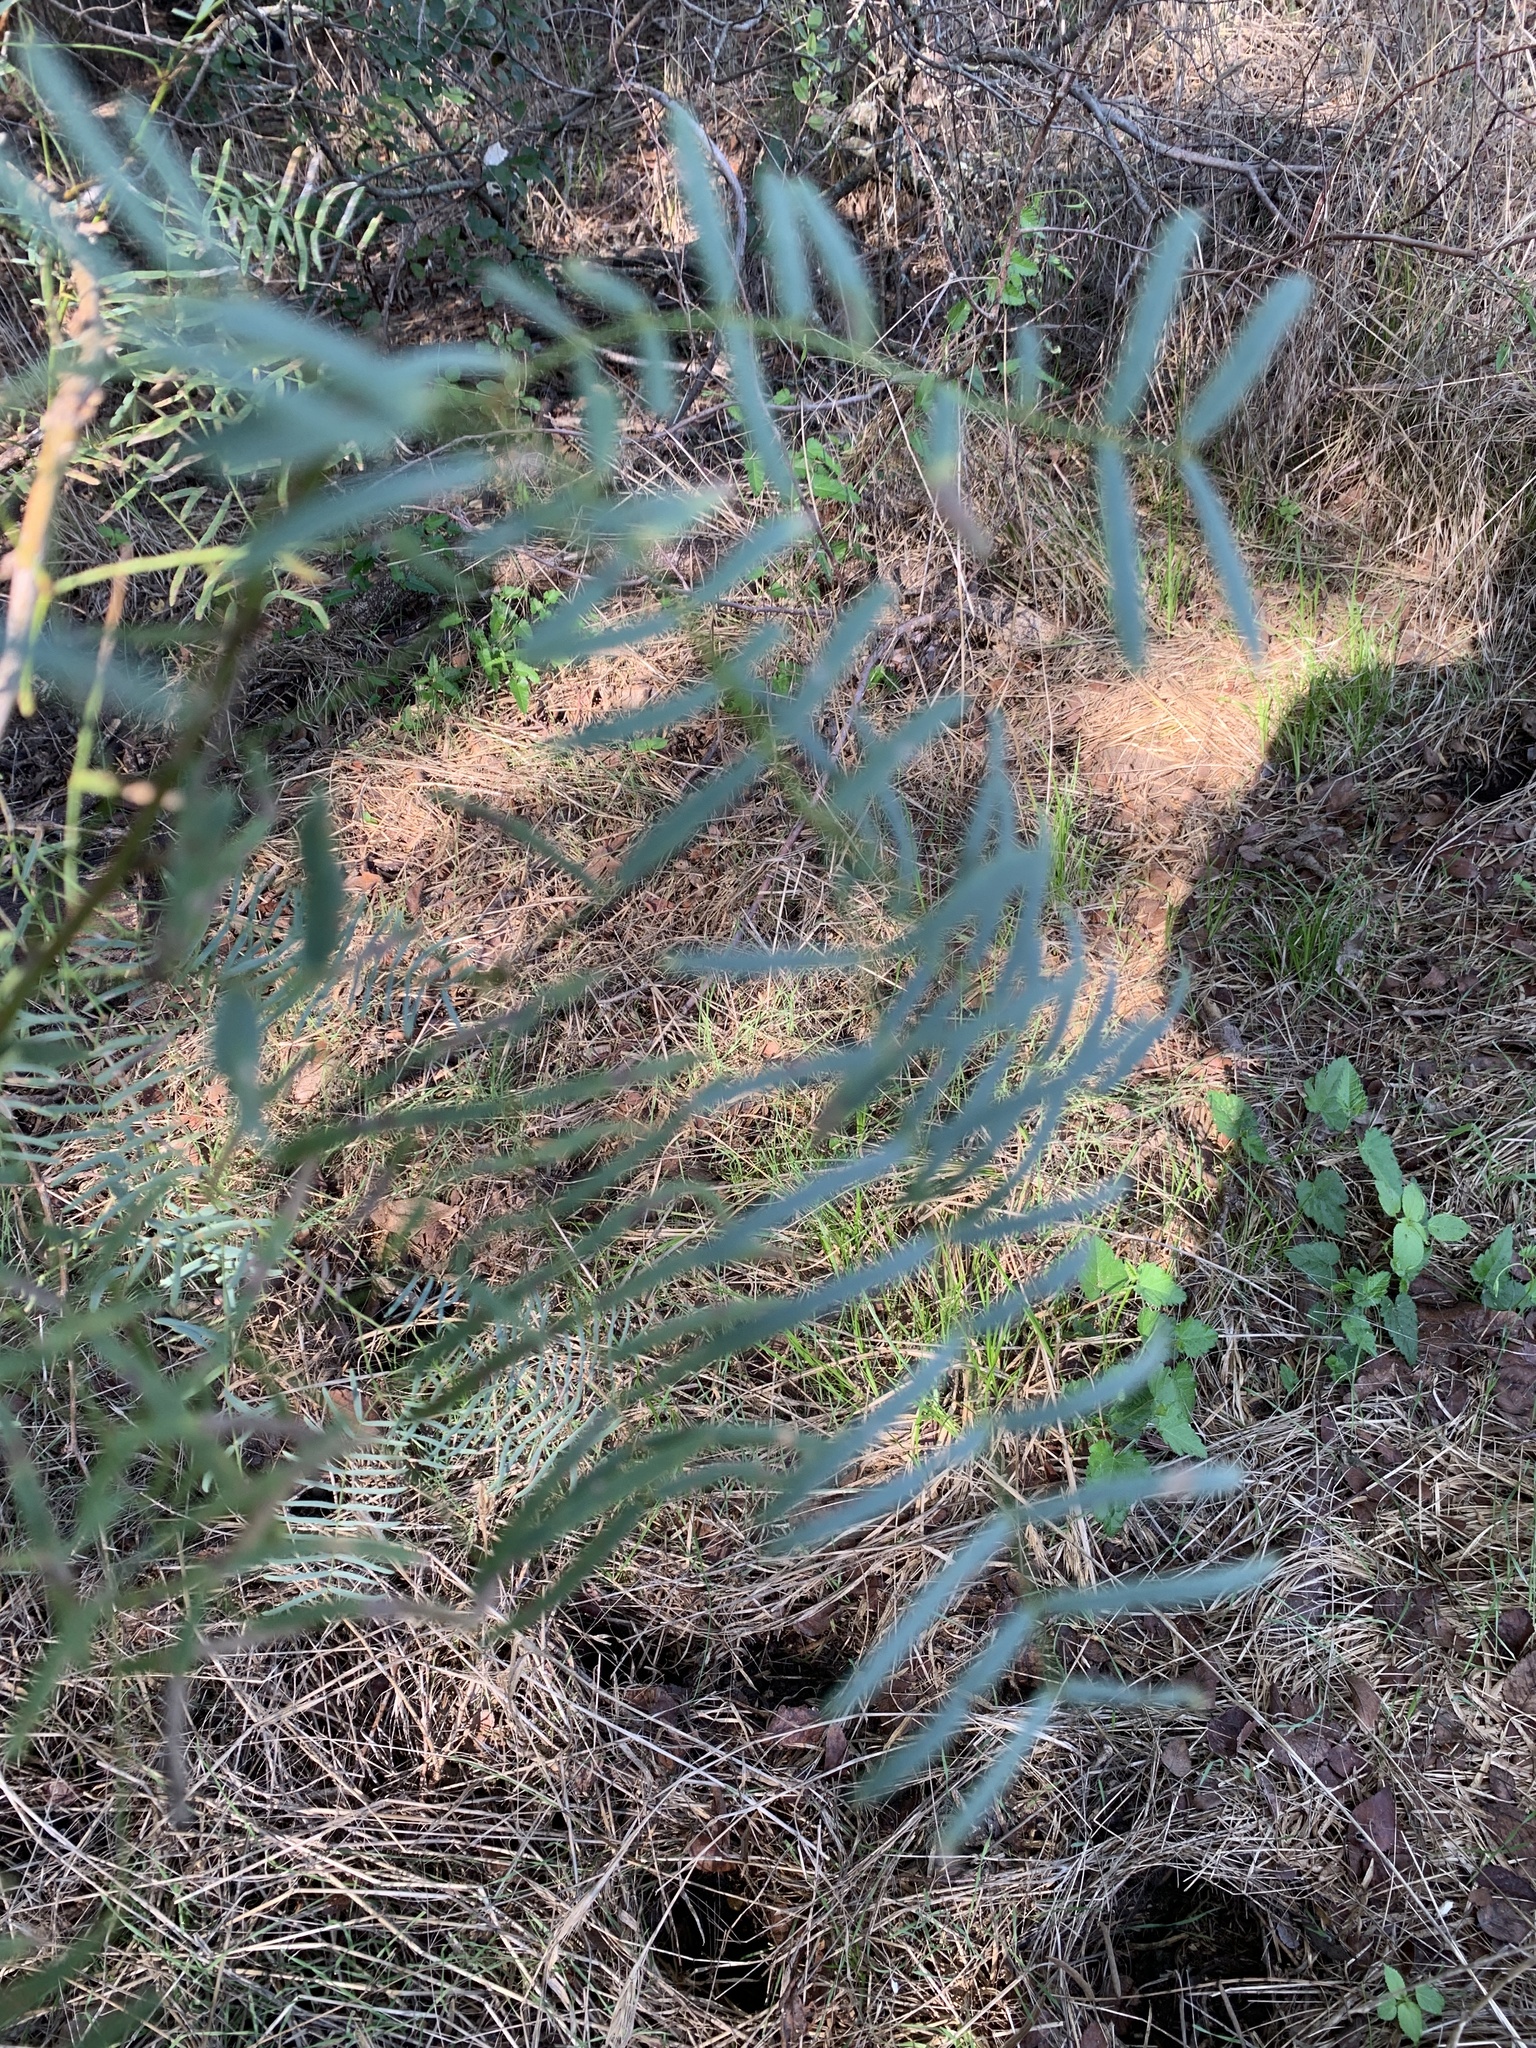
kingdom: Plantae
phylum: Tracheophyta
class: Magnoliopsida
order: Fabales
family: Fabaceae
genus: Prosopis
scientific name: Prosopis glandulosa
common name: Honey mesquite
